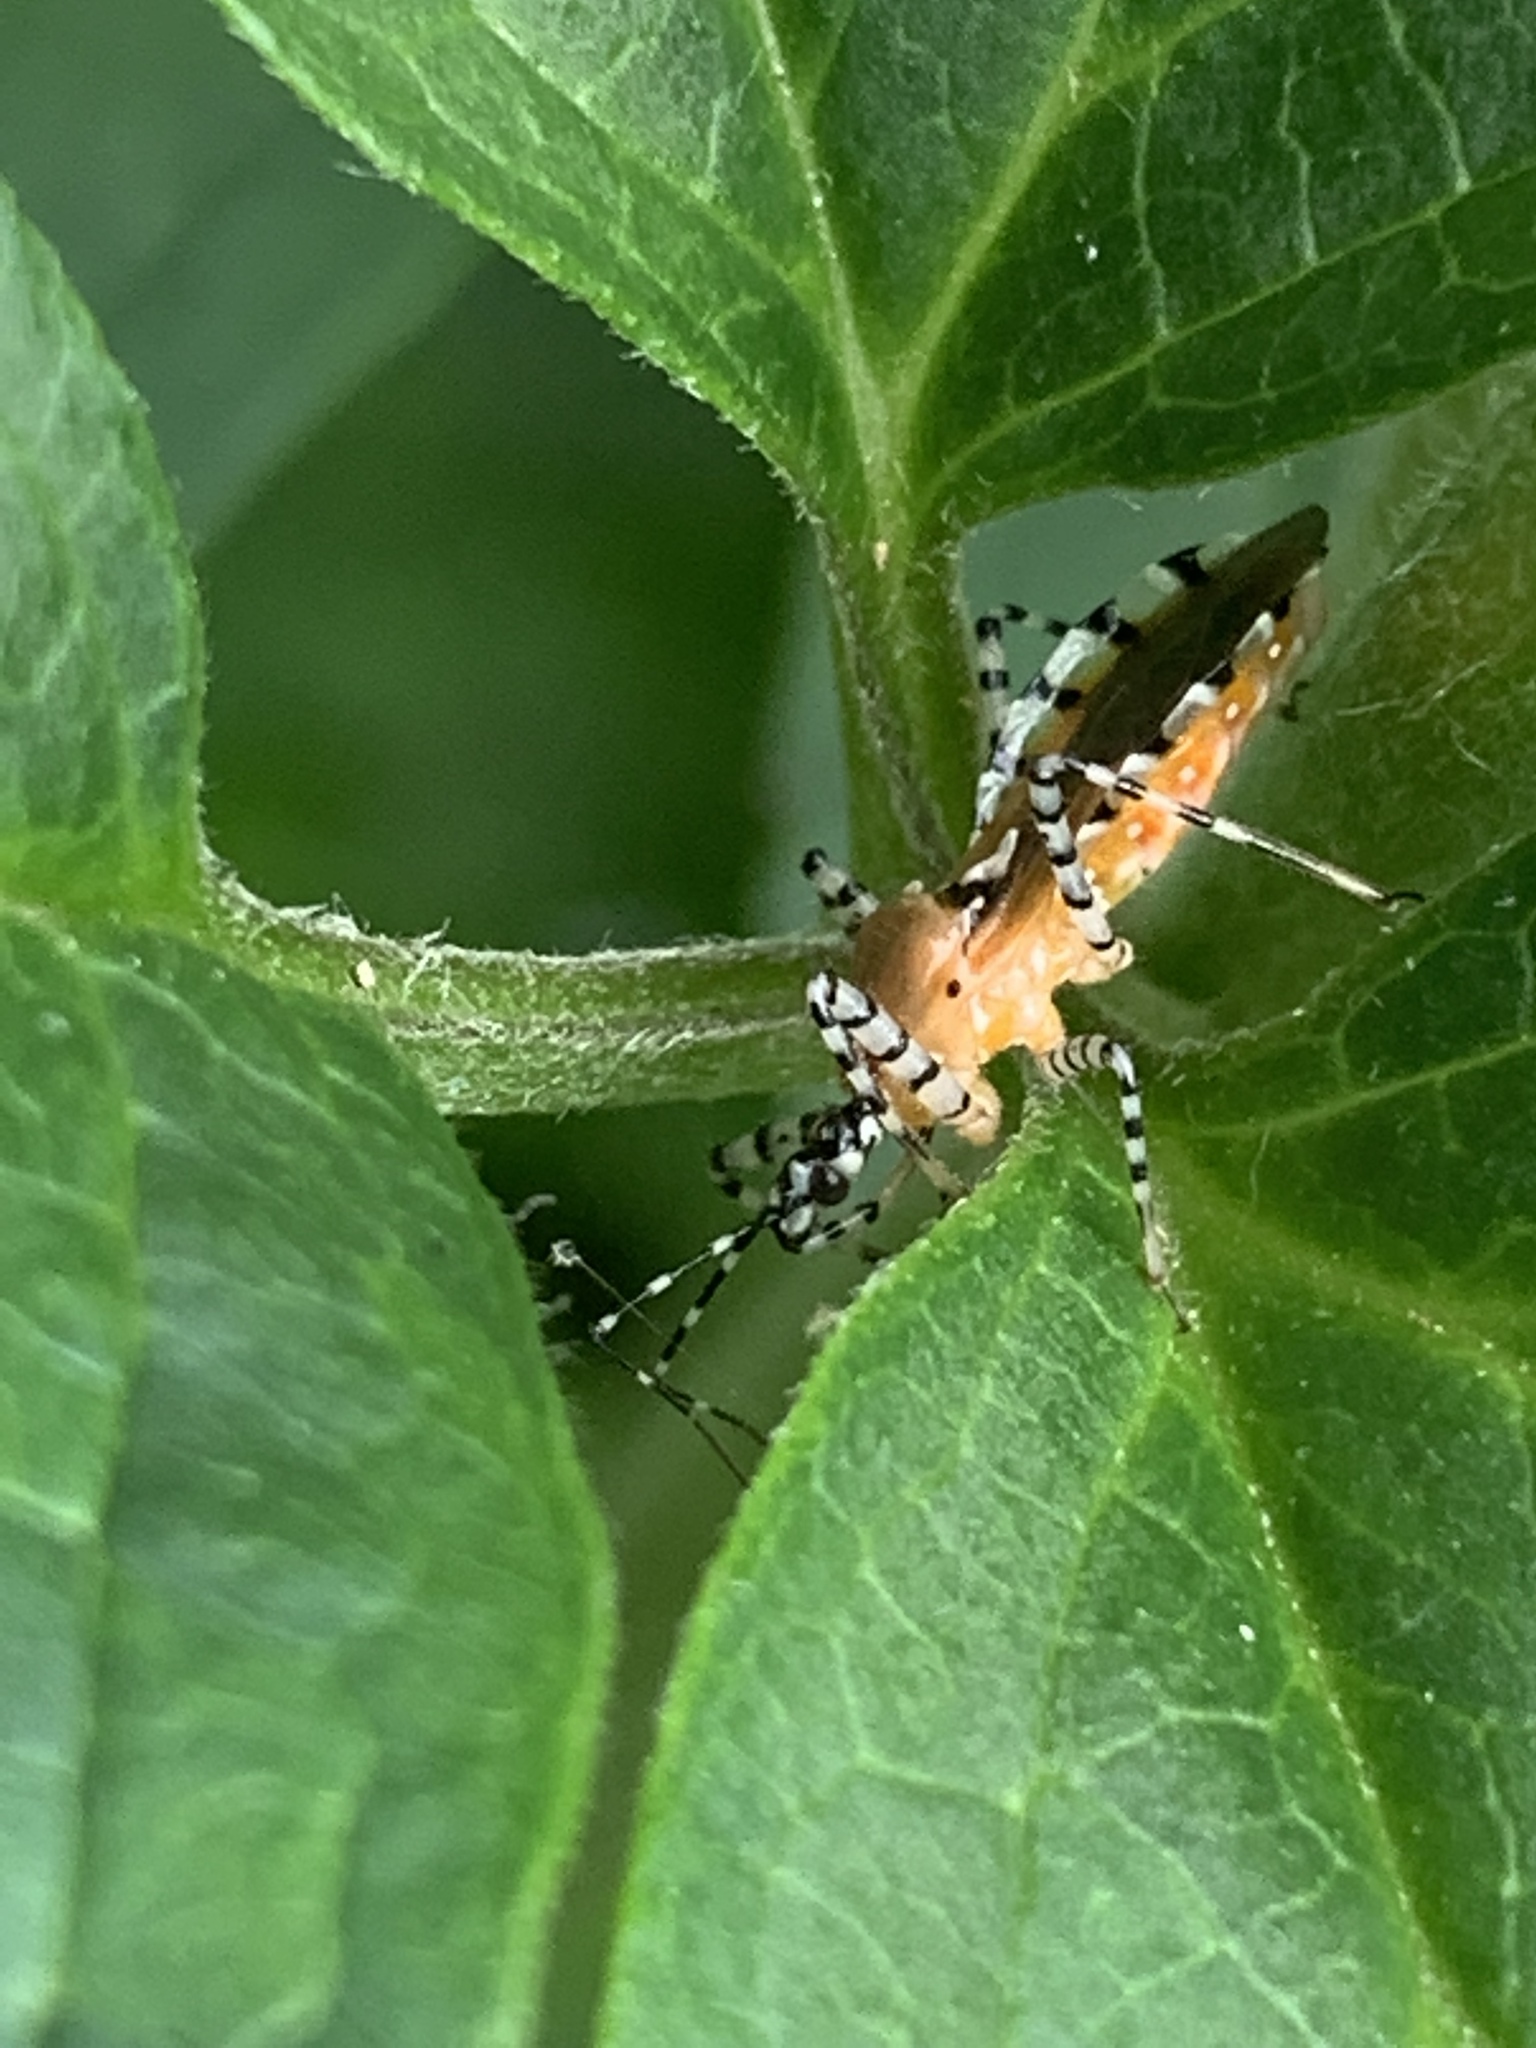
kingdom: Animalia
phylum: Arthropoda
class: Insecta
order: Hemiptera
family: Reduviidae
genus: Pselliopus
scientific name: Pselliopus cinctus
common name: Ringed assassin bug
